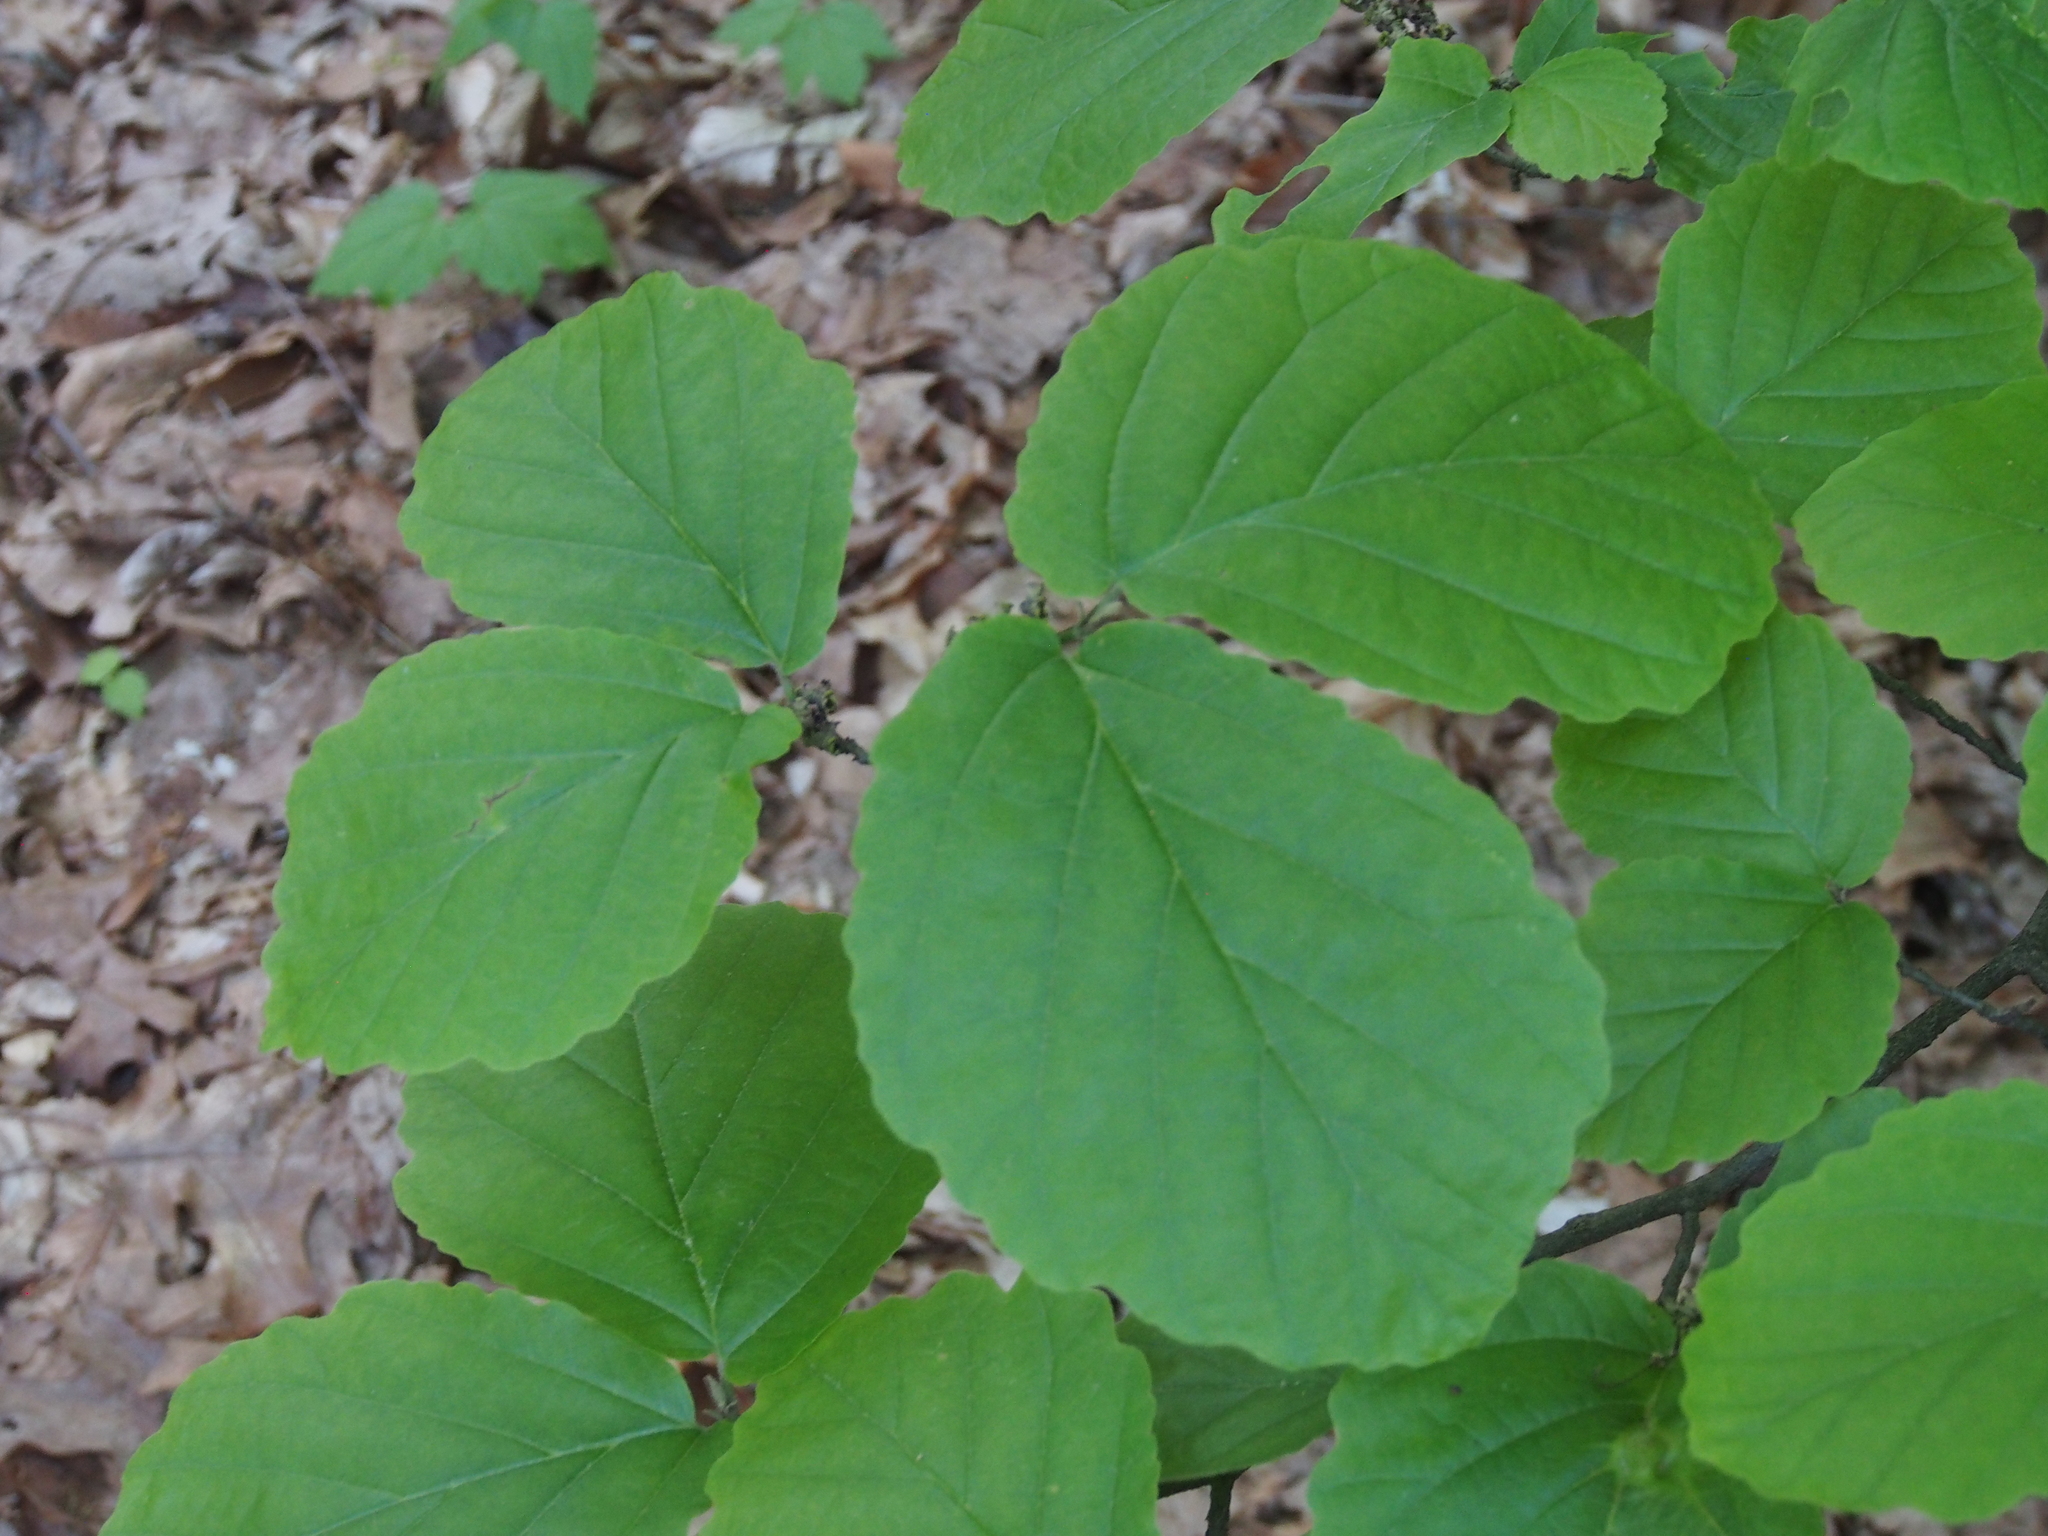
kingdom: Plantae
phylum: Tracheophyta
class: Magnoliopsida
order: Saxifragales
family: Hamamelidaceae
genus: Hamamelis
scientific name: Hamamelis virginiana
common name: Witch-hazel
